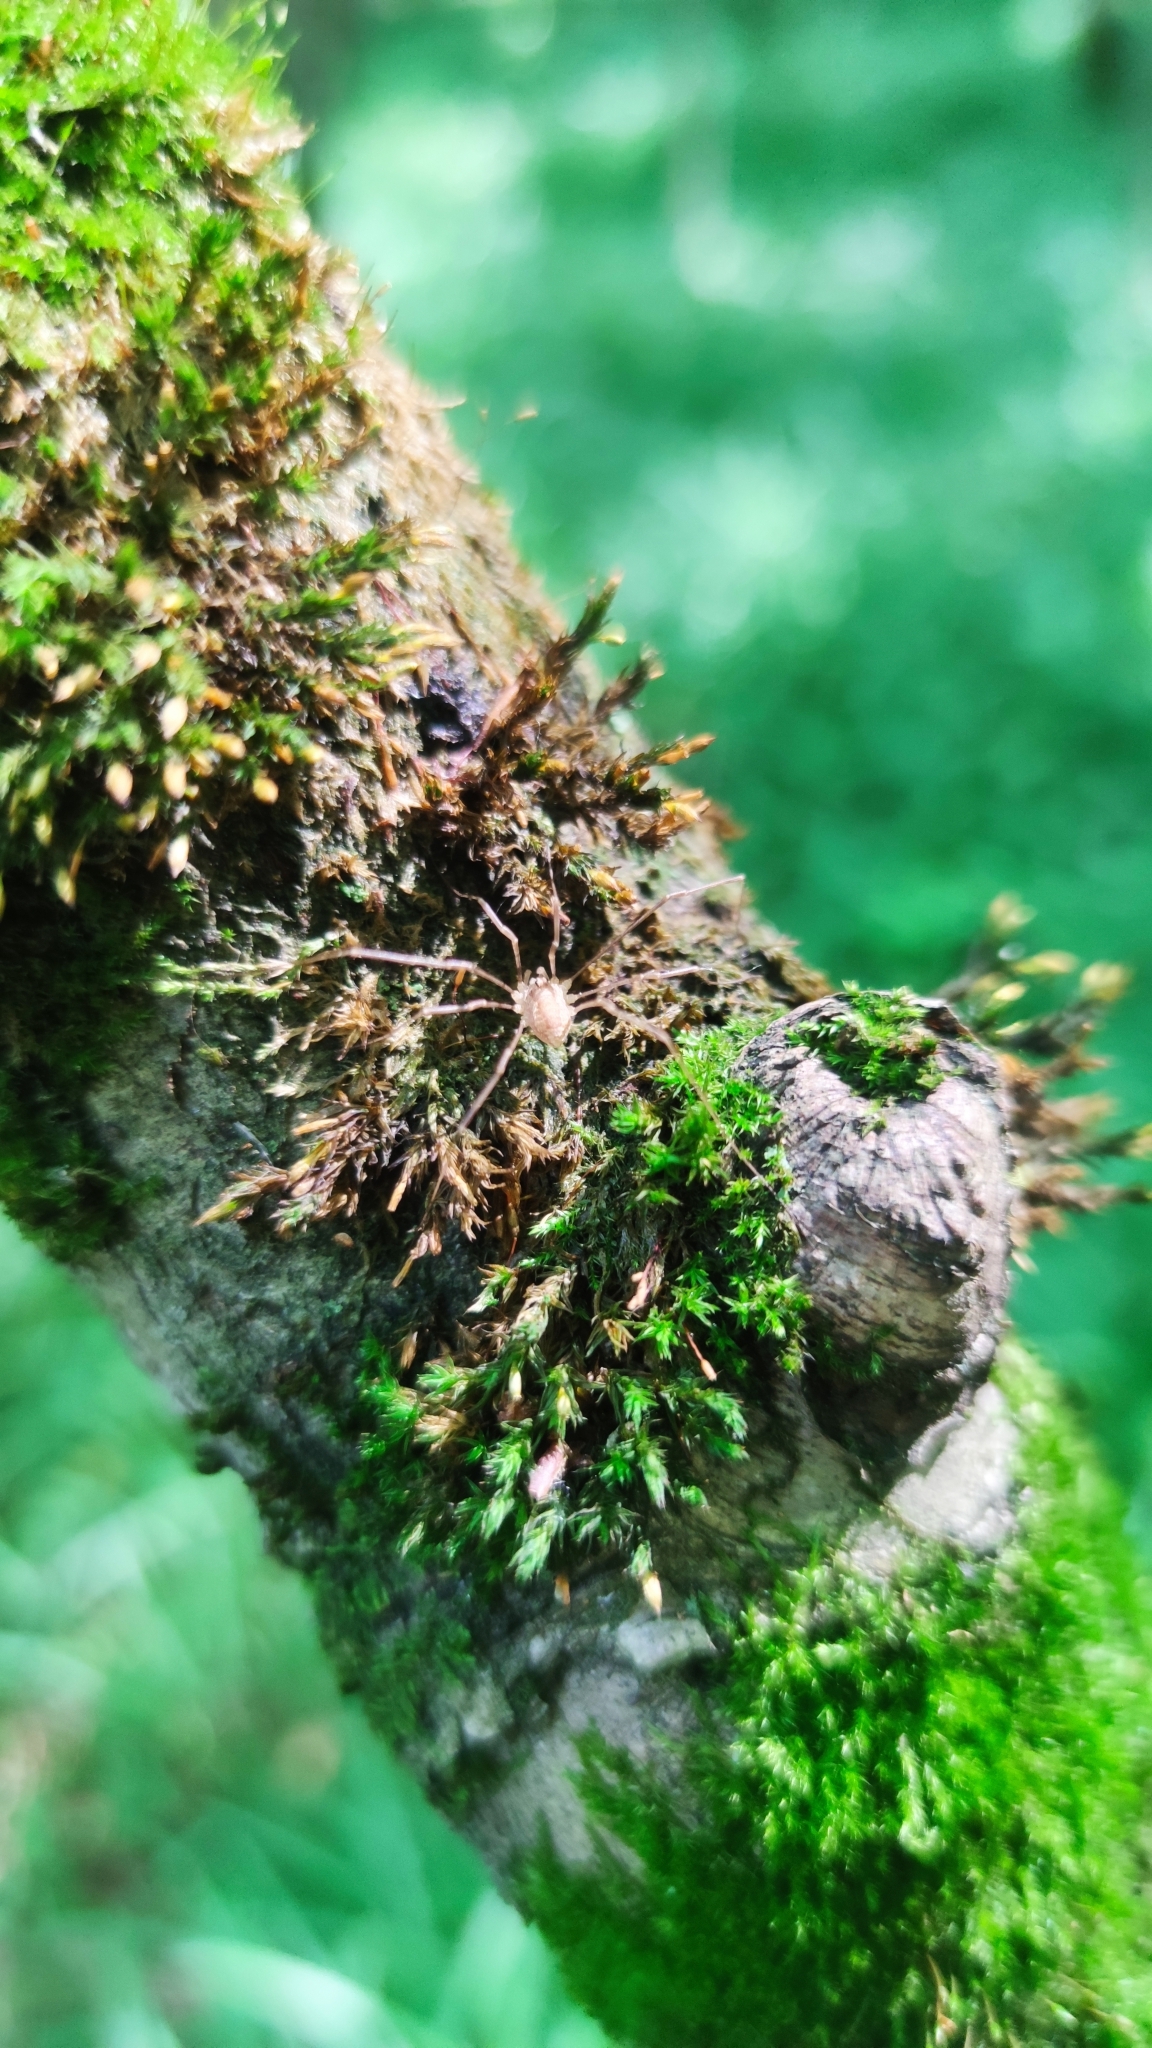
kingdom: Animalia
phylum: Arthropoda
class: Arachnida
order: Opiliones
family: Phalangiidae
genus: Rilaena
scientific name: Rilaena triangularis
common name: Spring harvestman
